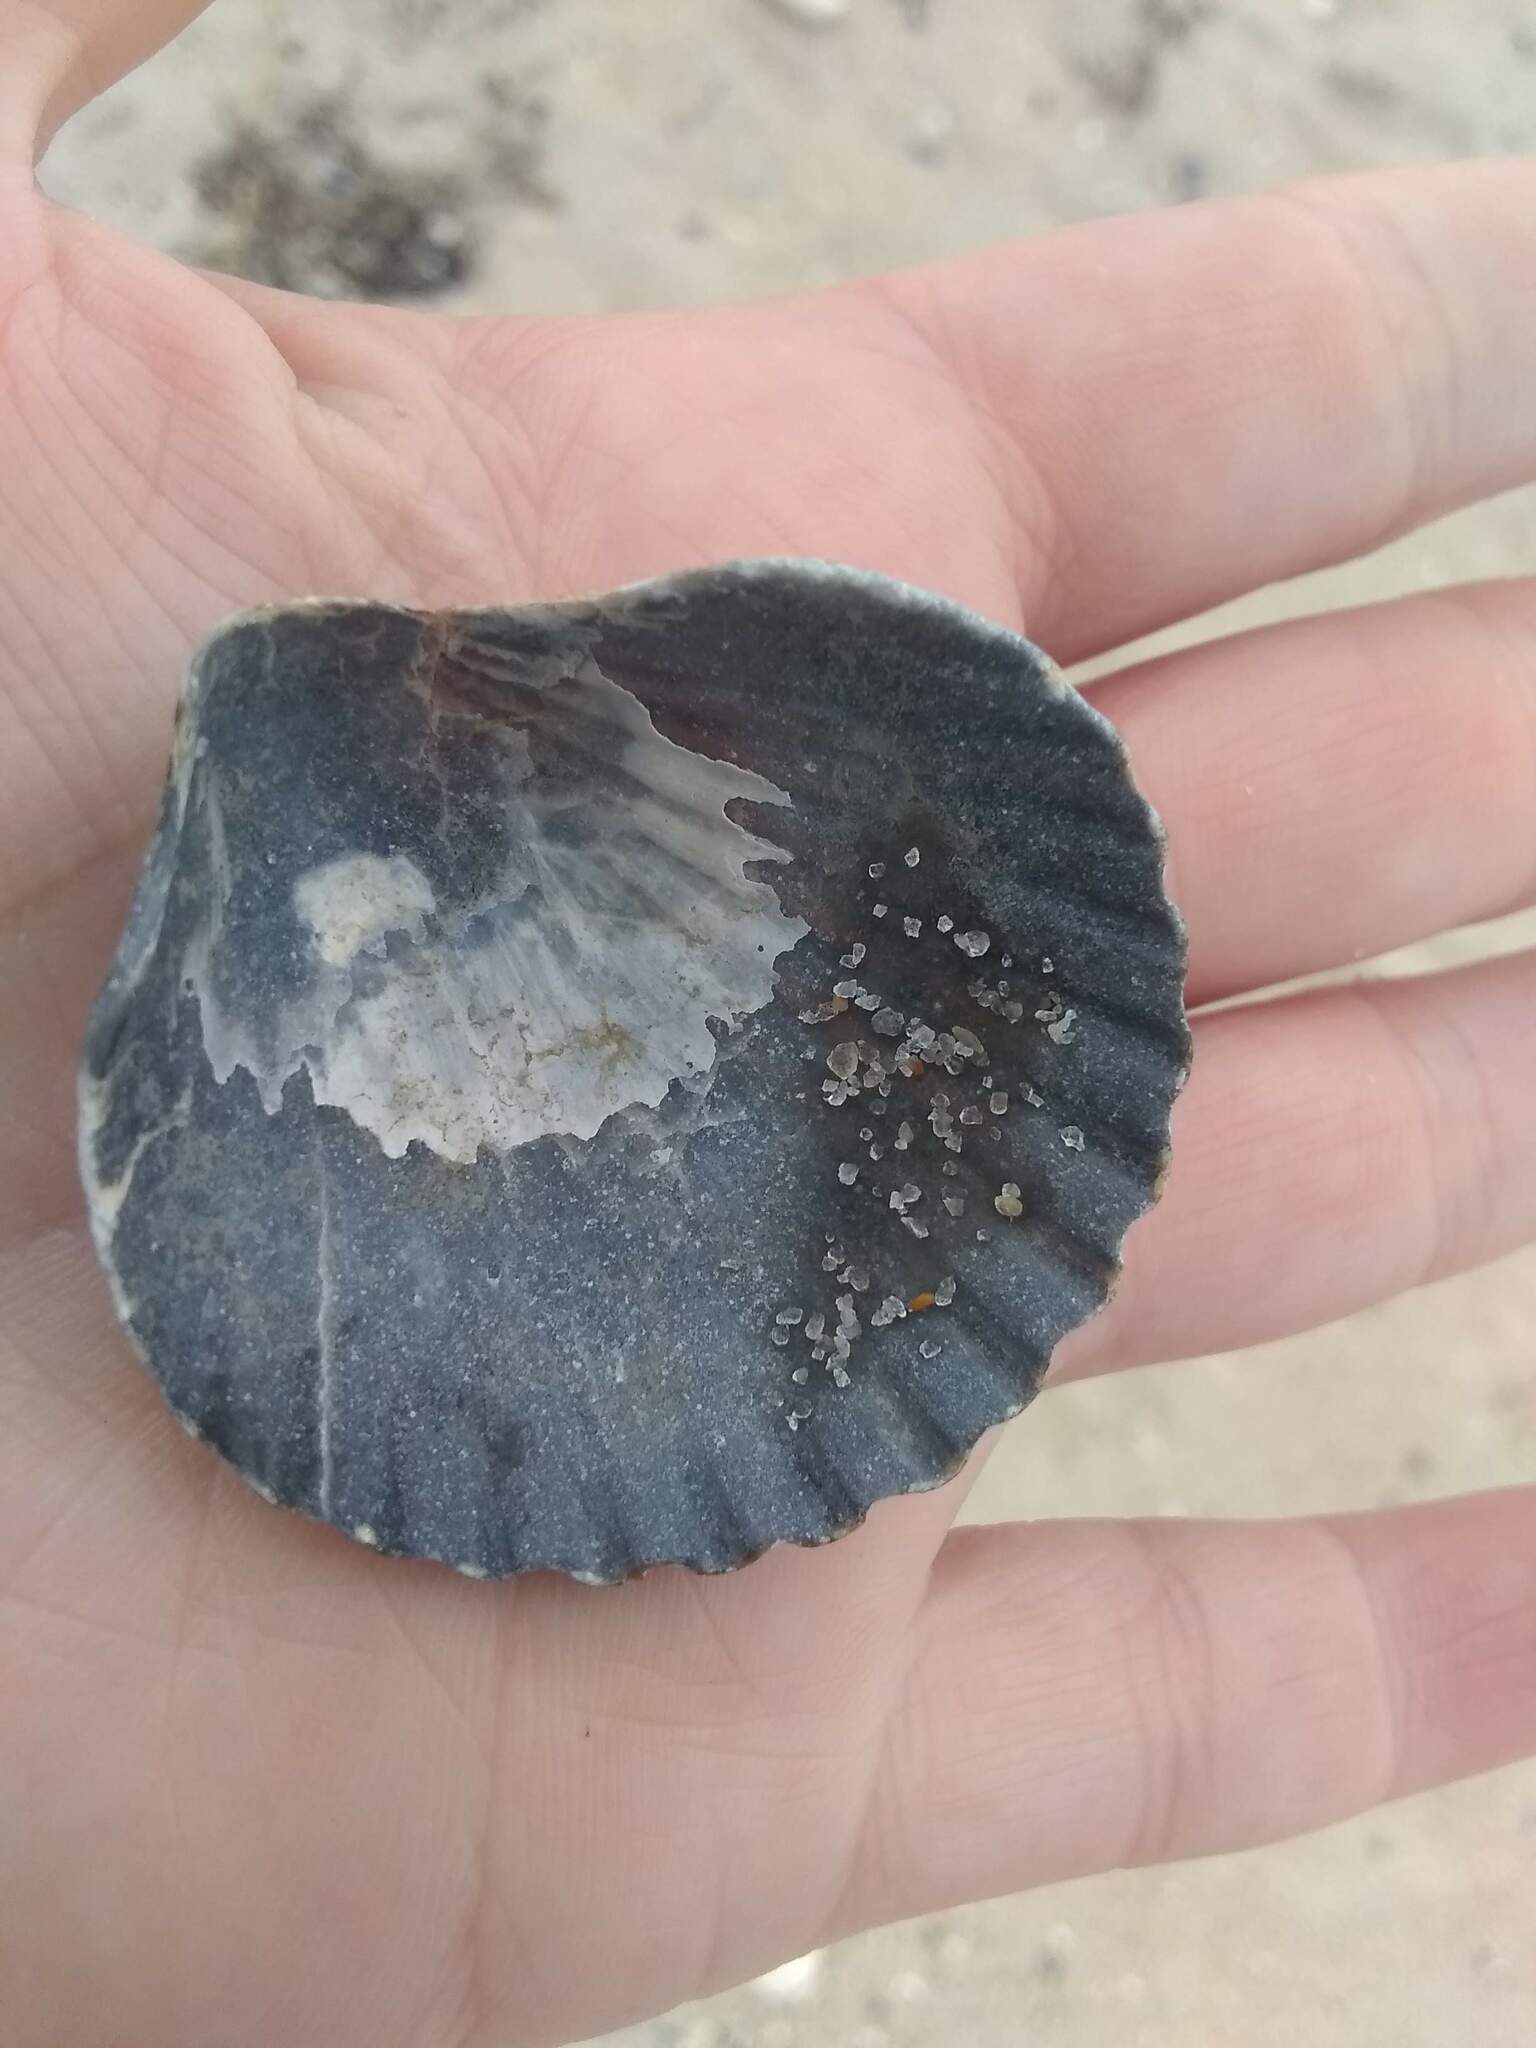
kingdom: Animalia
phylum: Mollusca
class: Bivalvia
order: Pectinida
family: Pectinidae
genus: Argopecten
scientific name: Argopecten irradians
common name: Atlantic bay scallop
